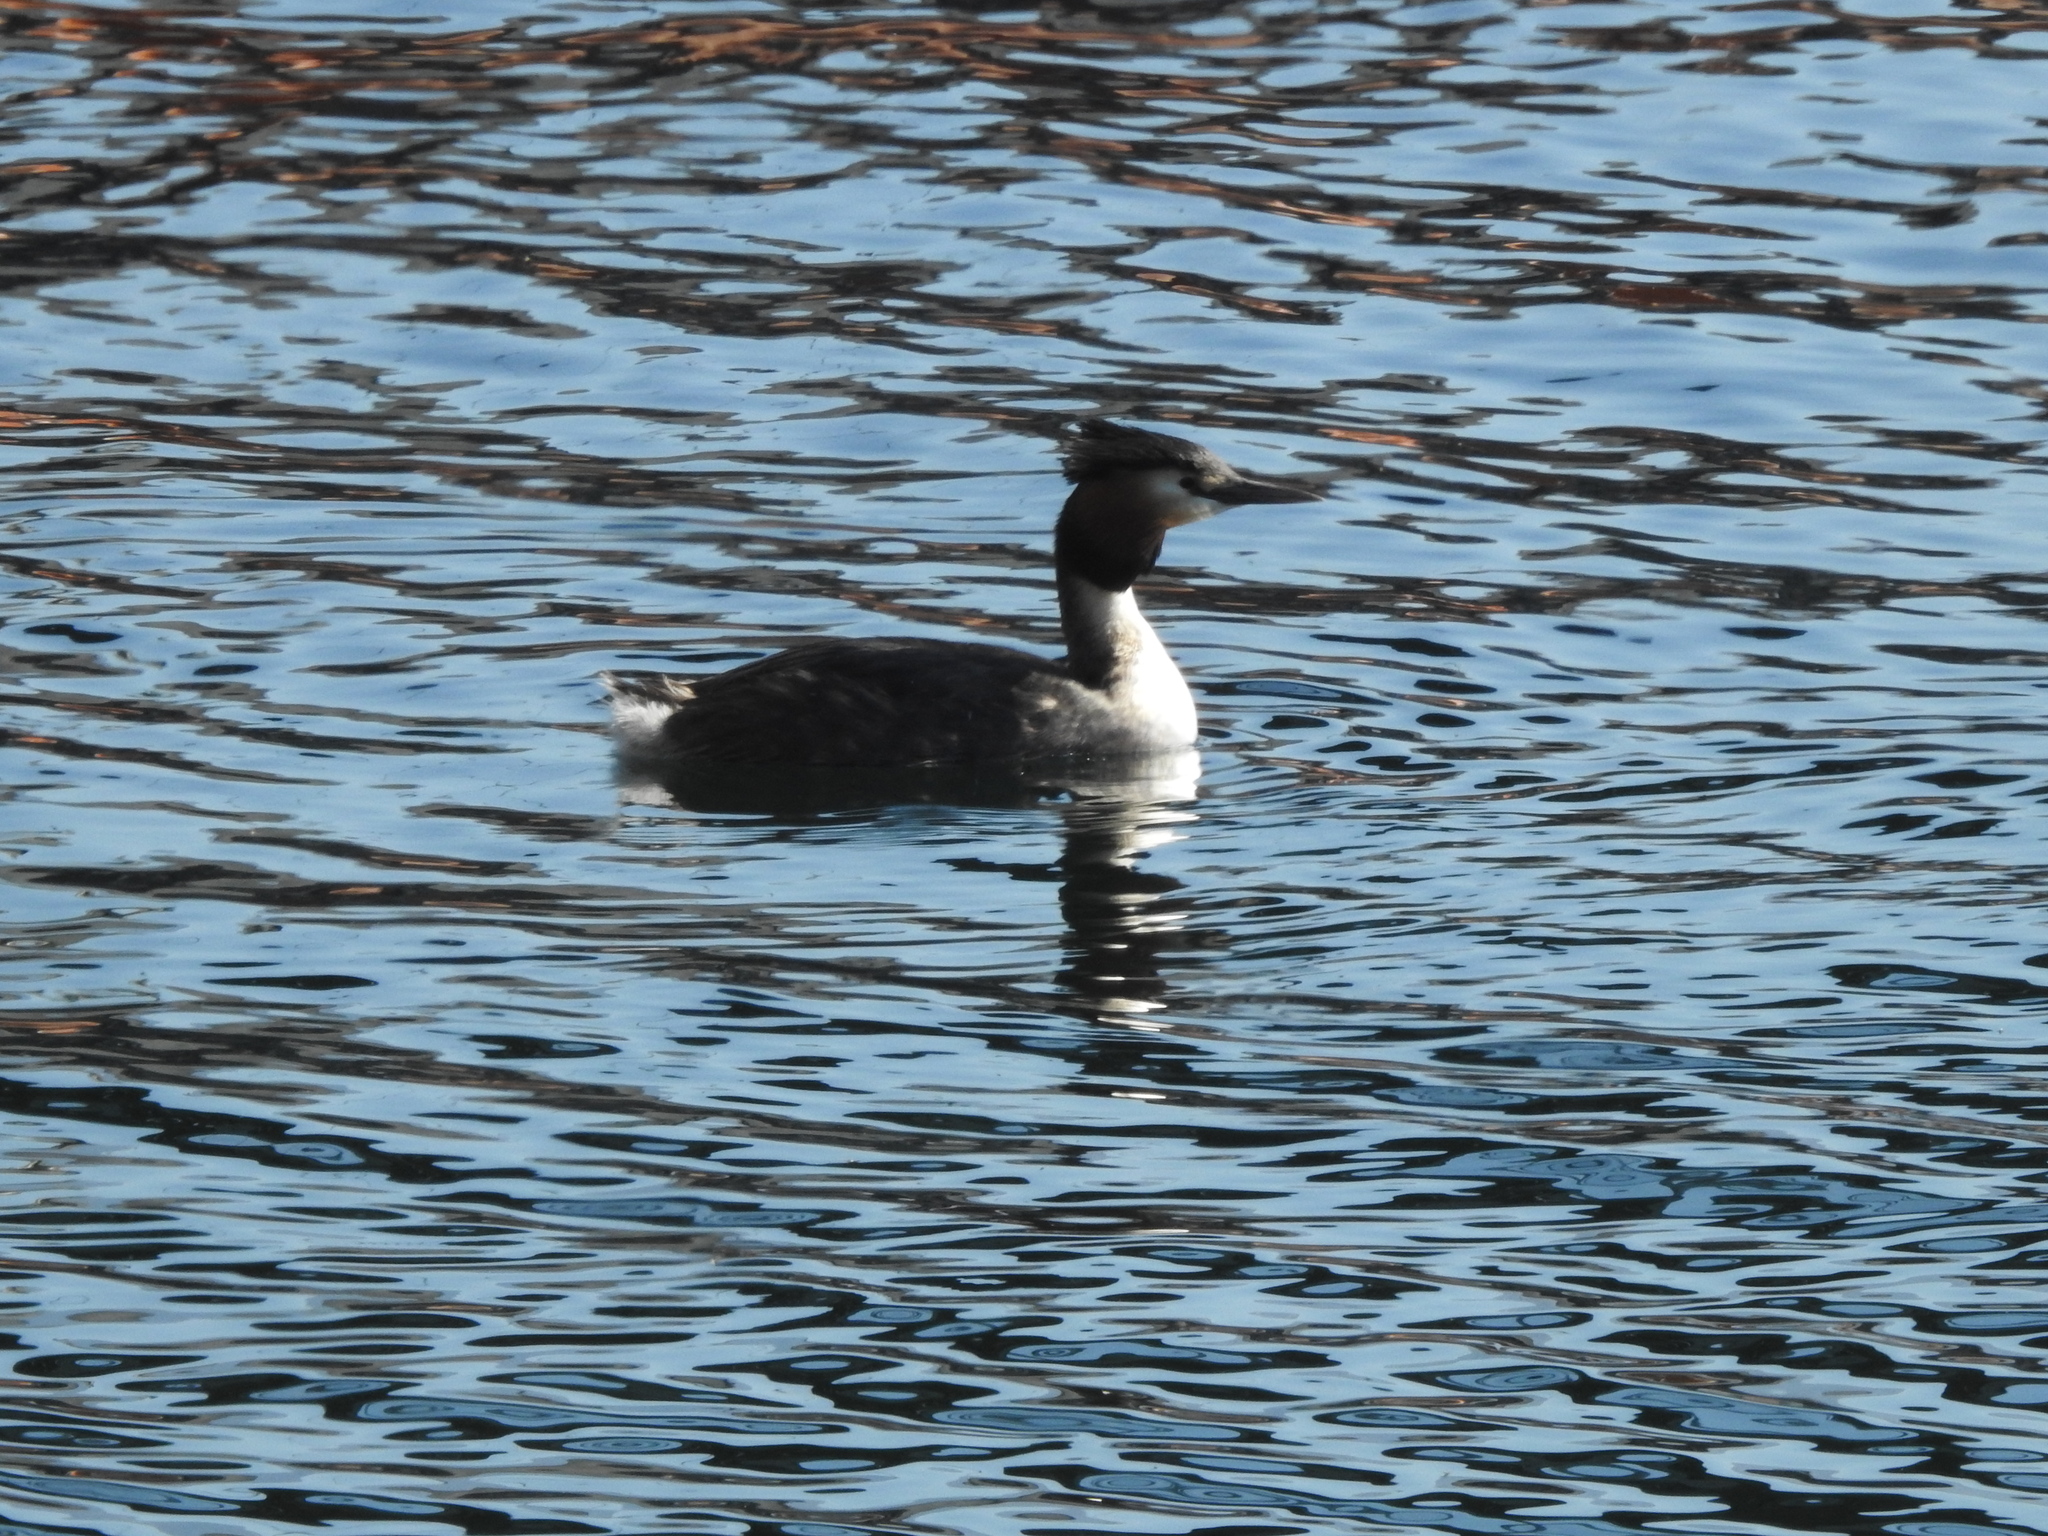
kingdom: Animalia
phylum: Chordata
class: Aves
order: Podicipediformes
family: Podicipedidae
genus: Podiceps
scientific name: Podiceps cristatus
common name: Great crested grebe
